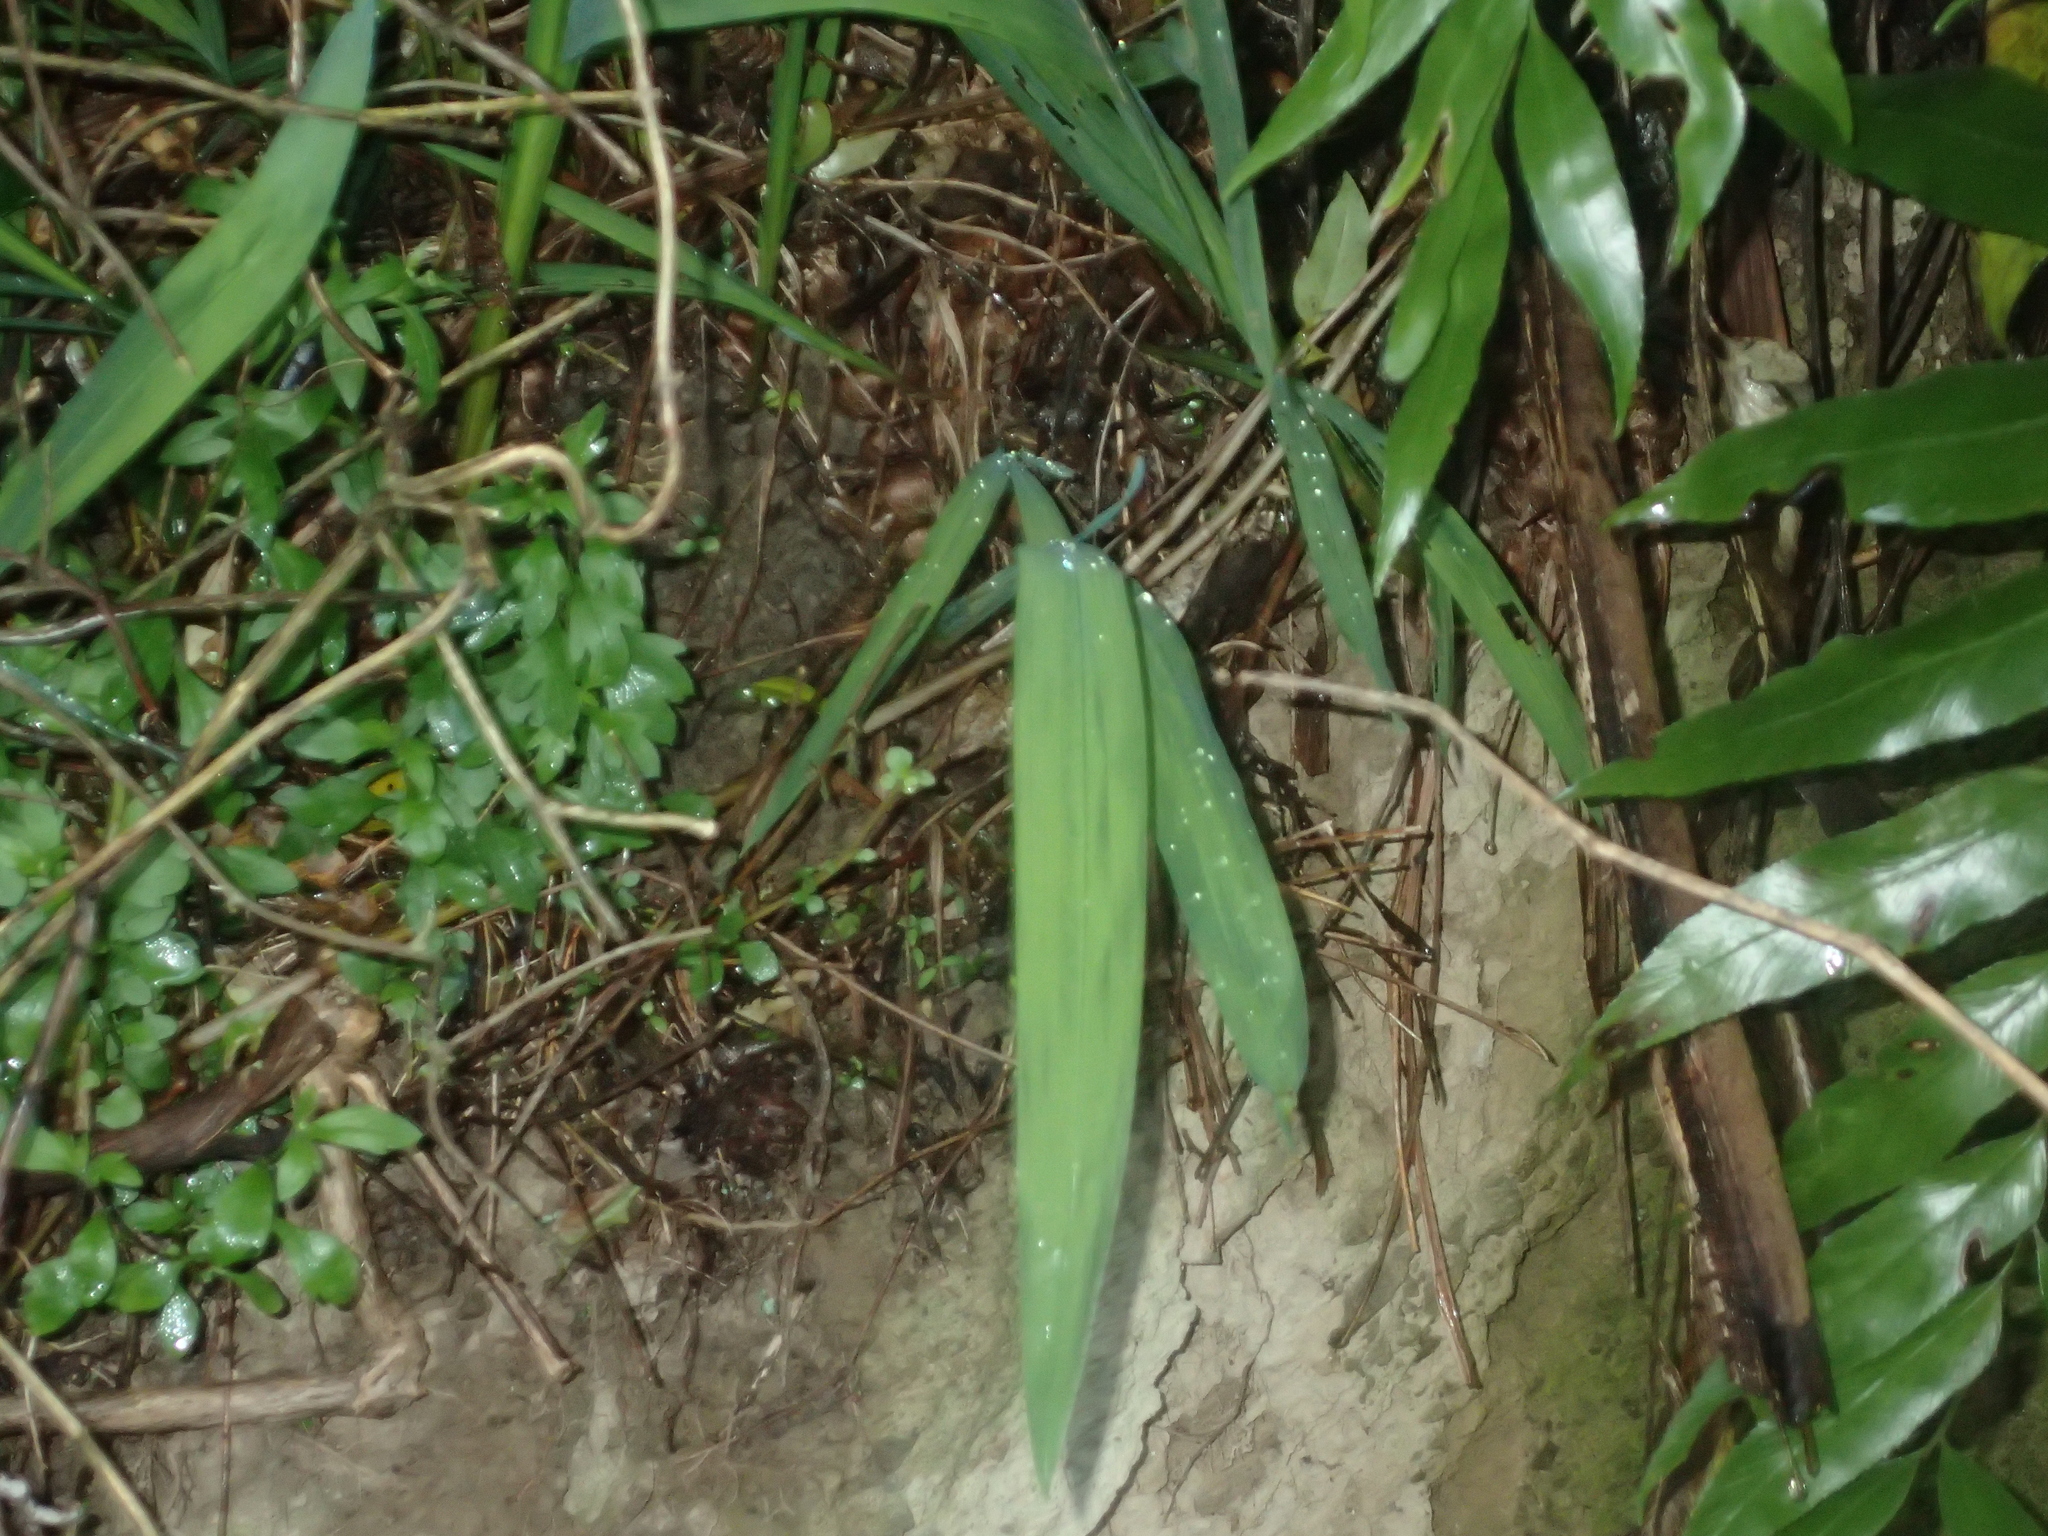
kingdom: Plantae
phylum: Tracheophyta
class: Liliopsida
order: Asparagales
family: Iridaceae
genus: Crocosmia
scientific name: Crocosmia crocosmiiflora
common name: Montbretia
